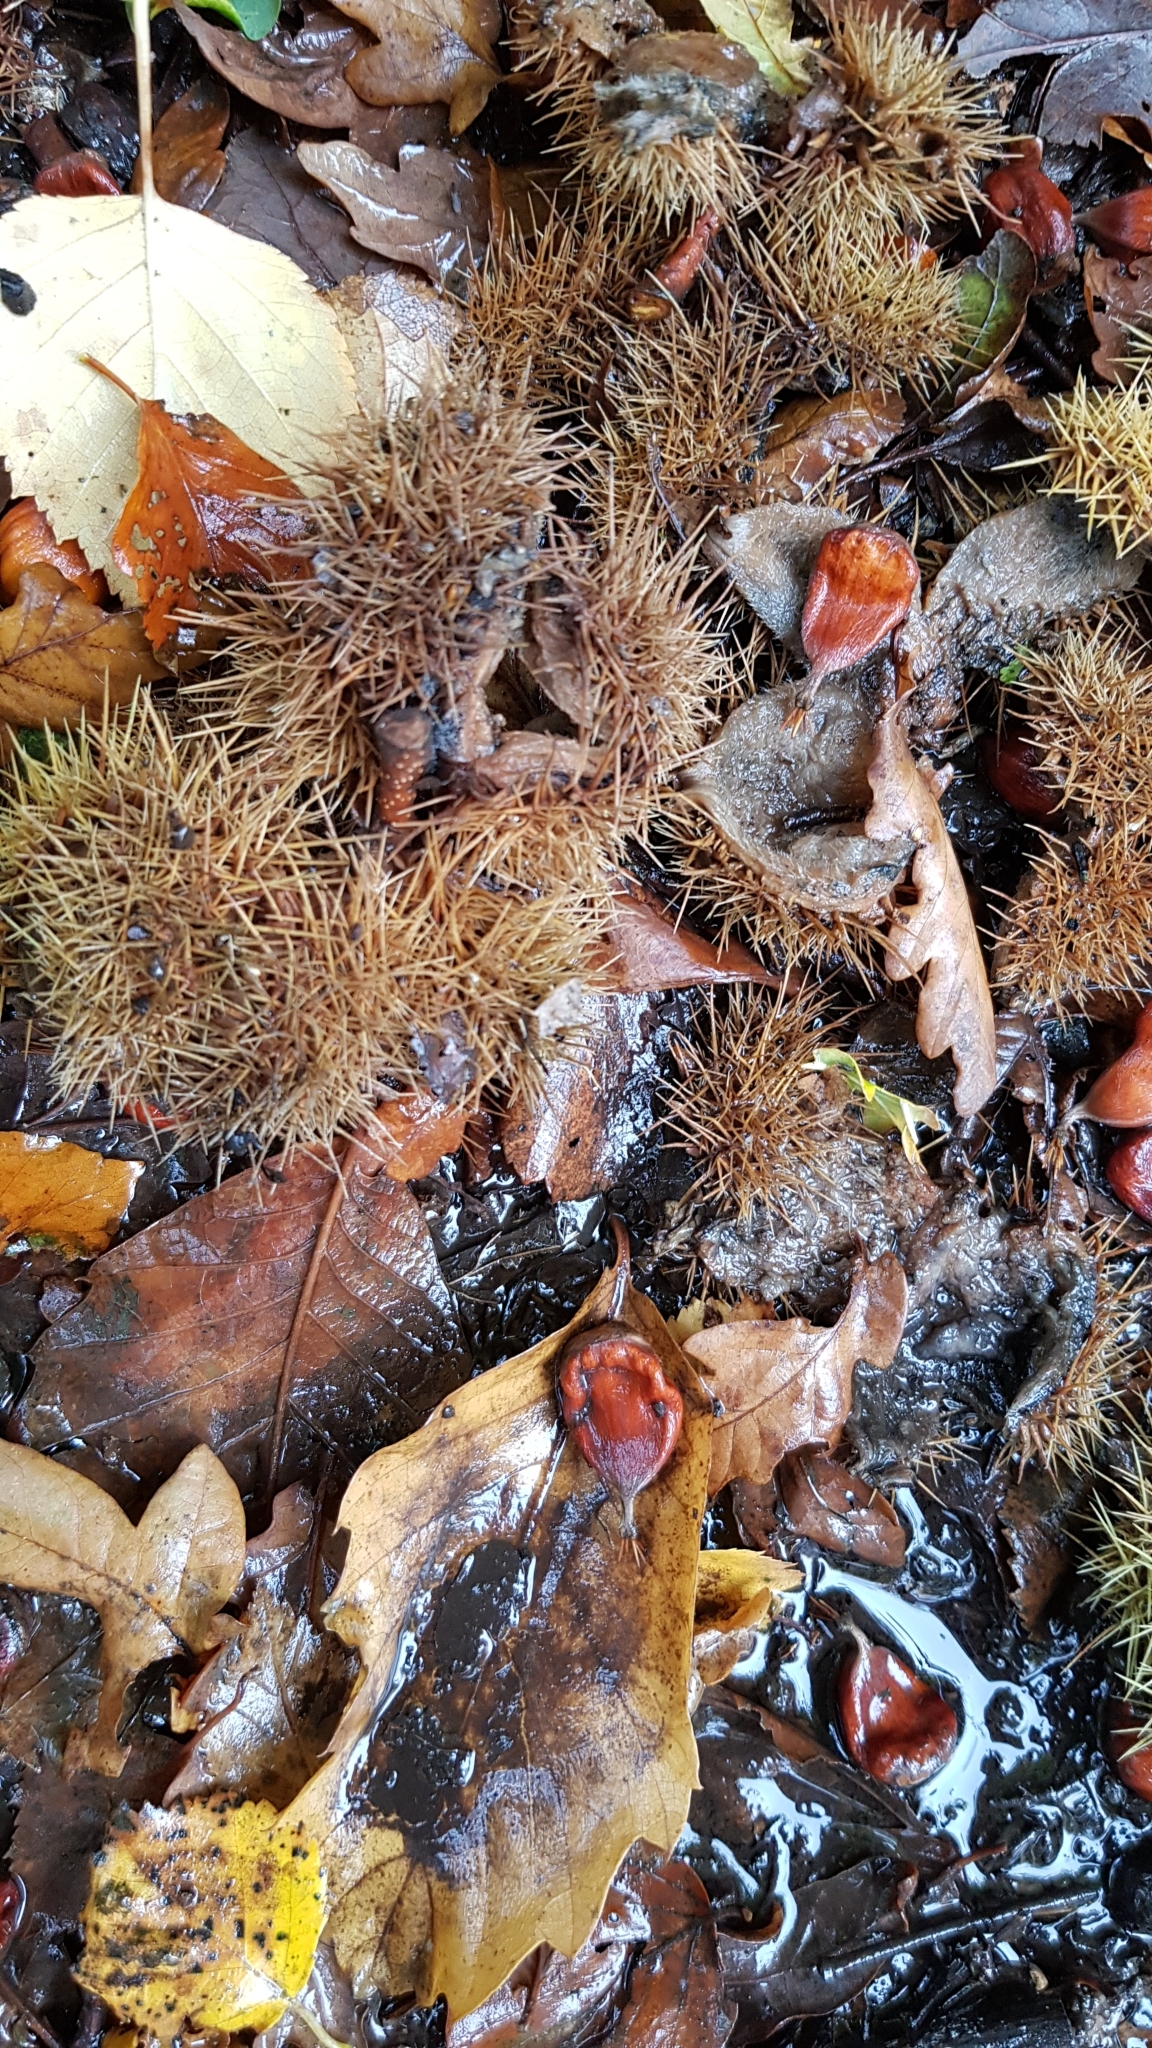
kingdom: Plantae
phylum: Tracheophyta
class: Magnoliopsida
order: Fagales
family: Fagaceae
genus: Castanea
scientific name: Castanea sativa
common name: Sweet chestnut
